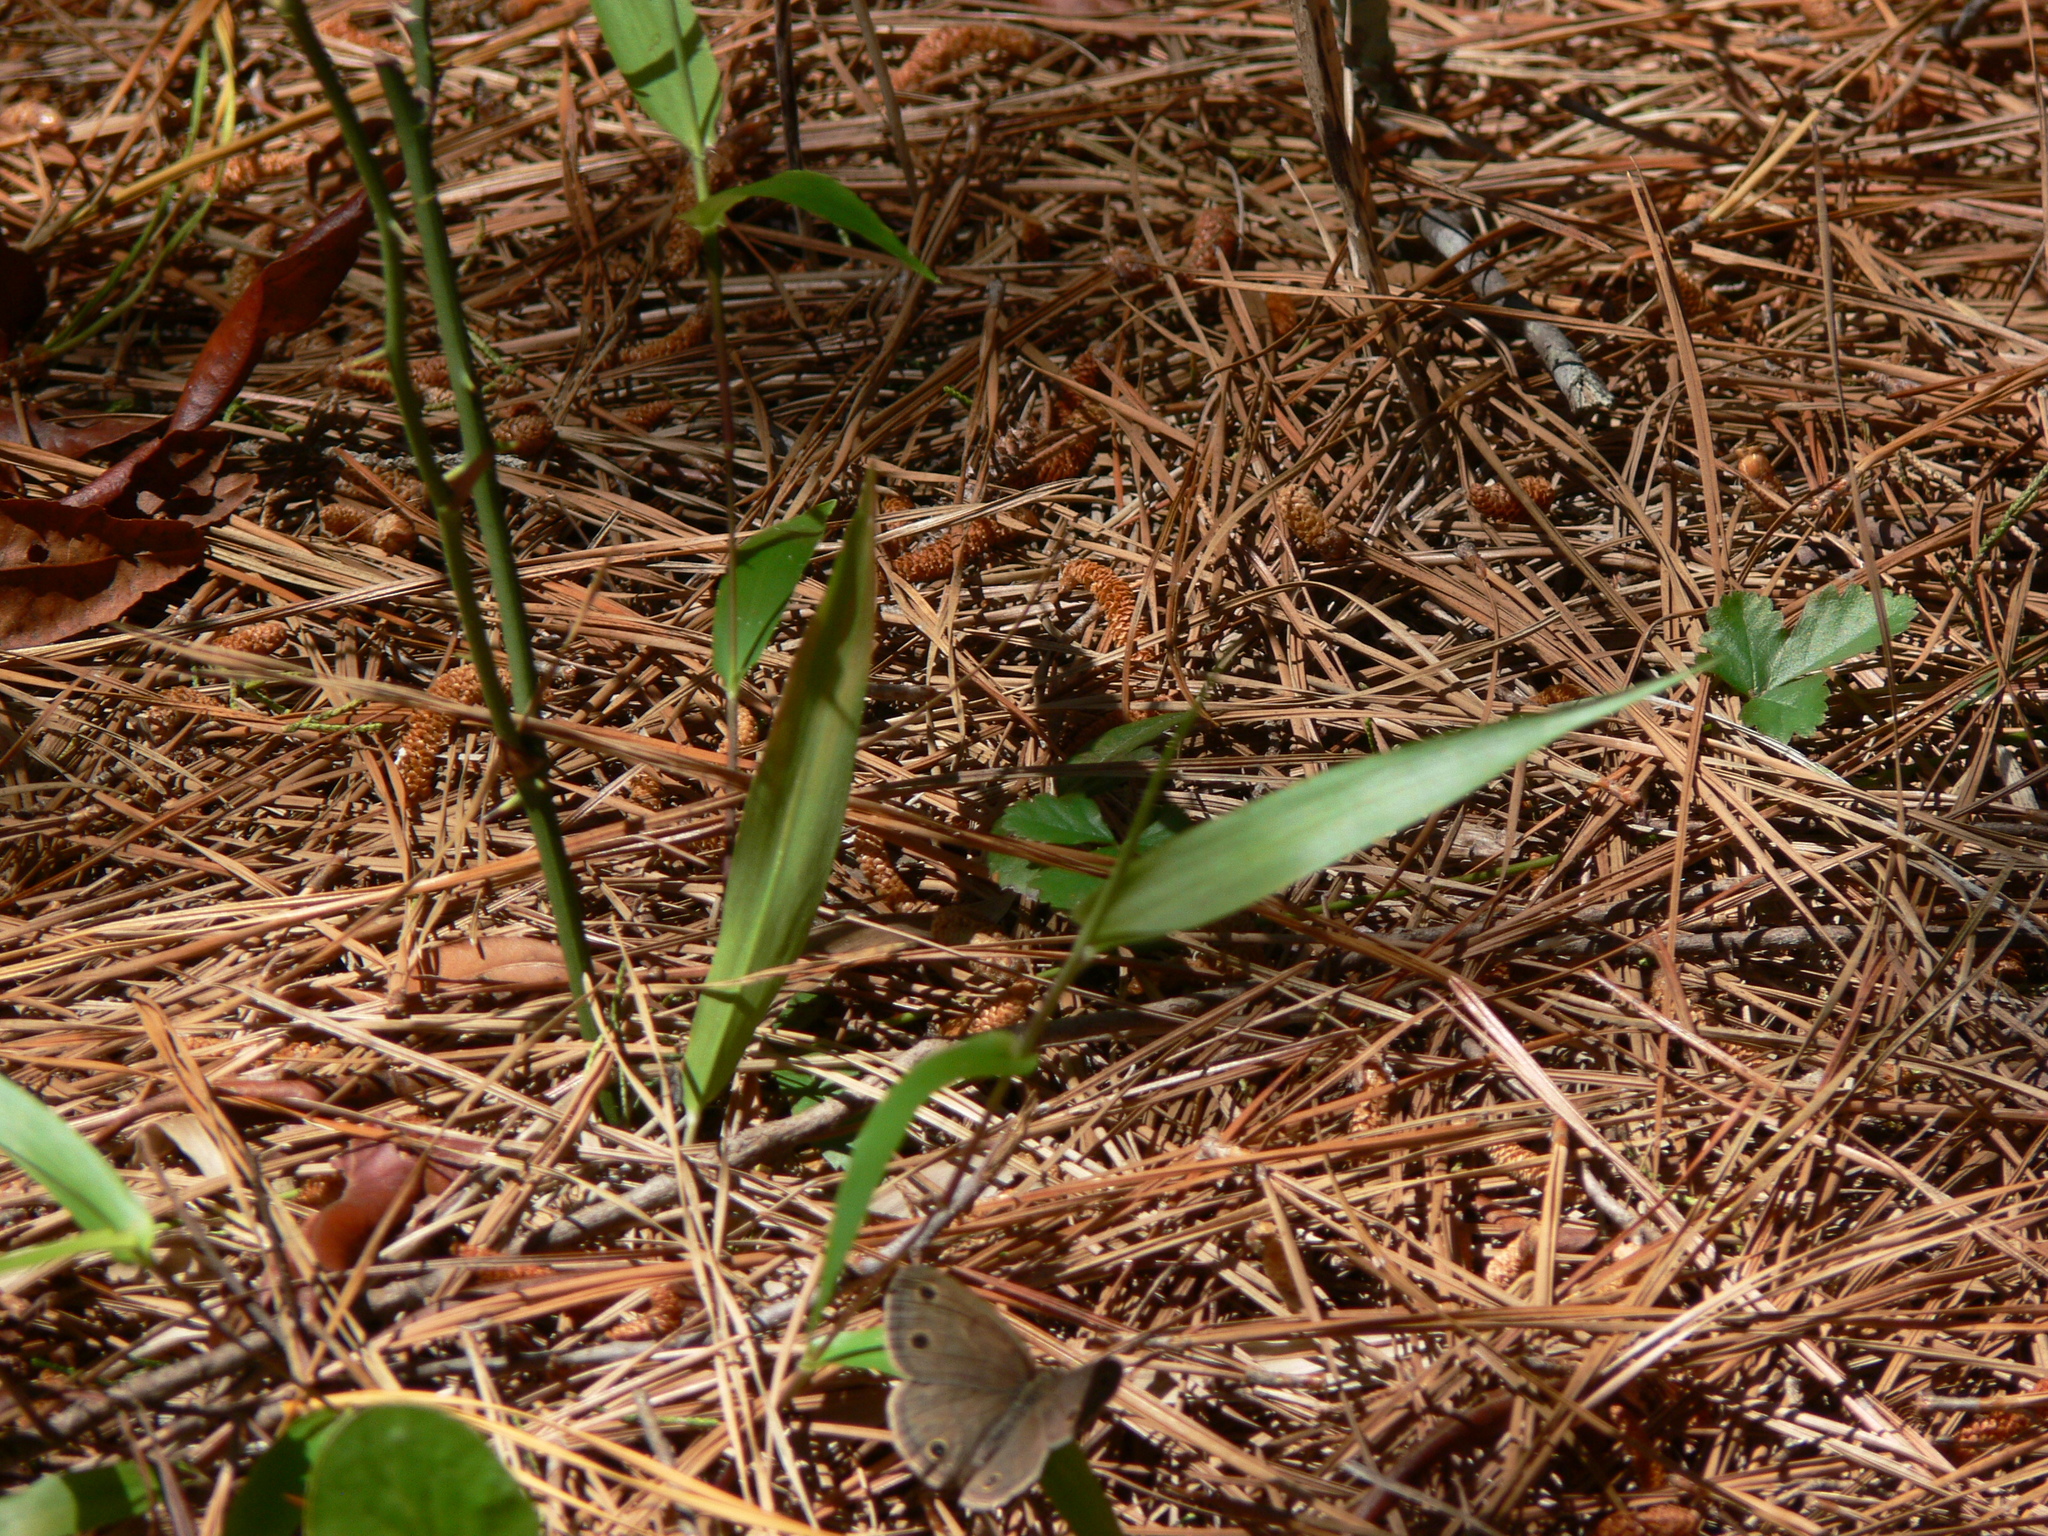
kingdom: Animalia
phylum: Arthropoda
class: Insecta
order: Lepidoptera
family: Nymphalidae
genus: Euptychia
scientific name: Euptychia cymela
